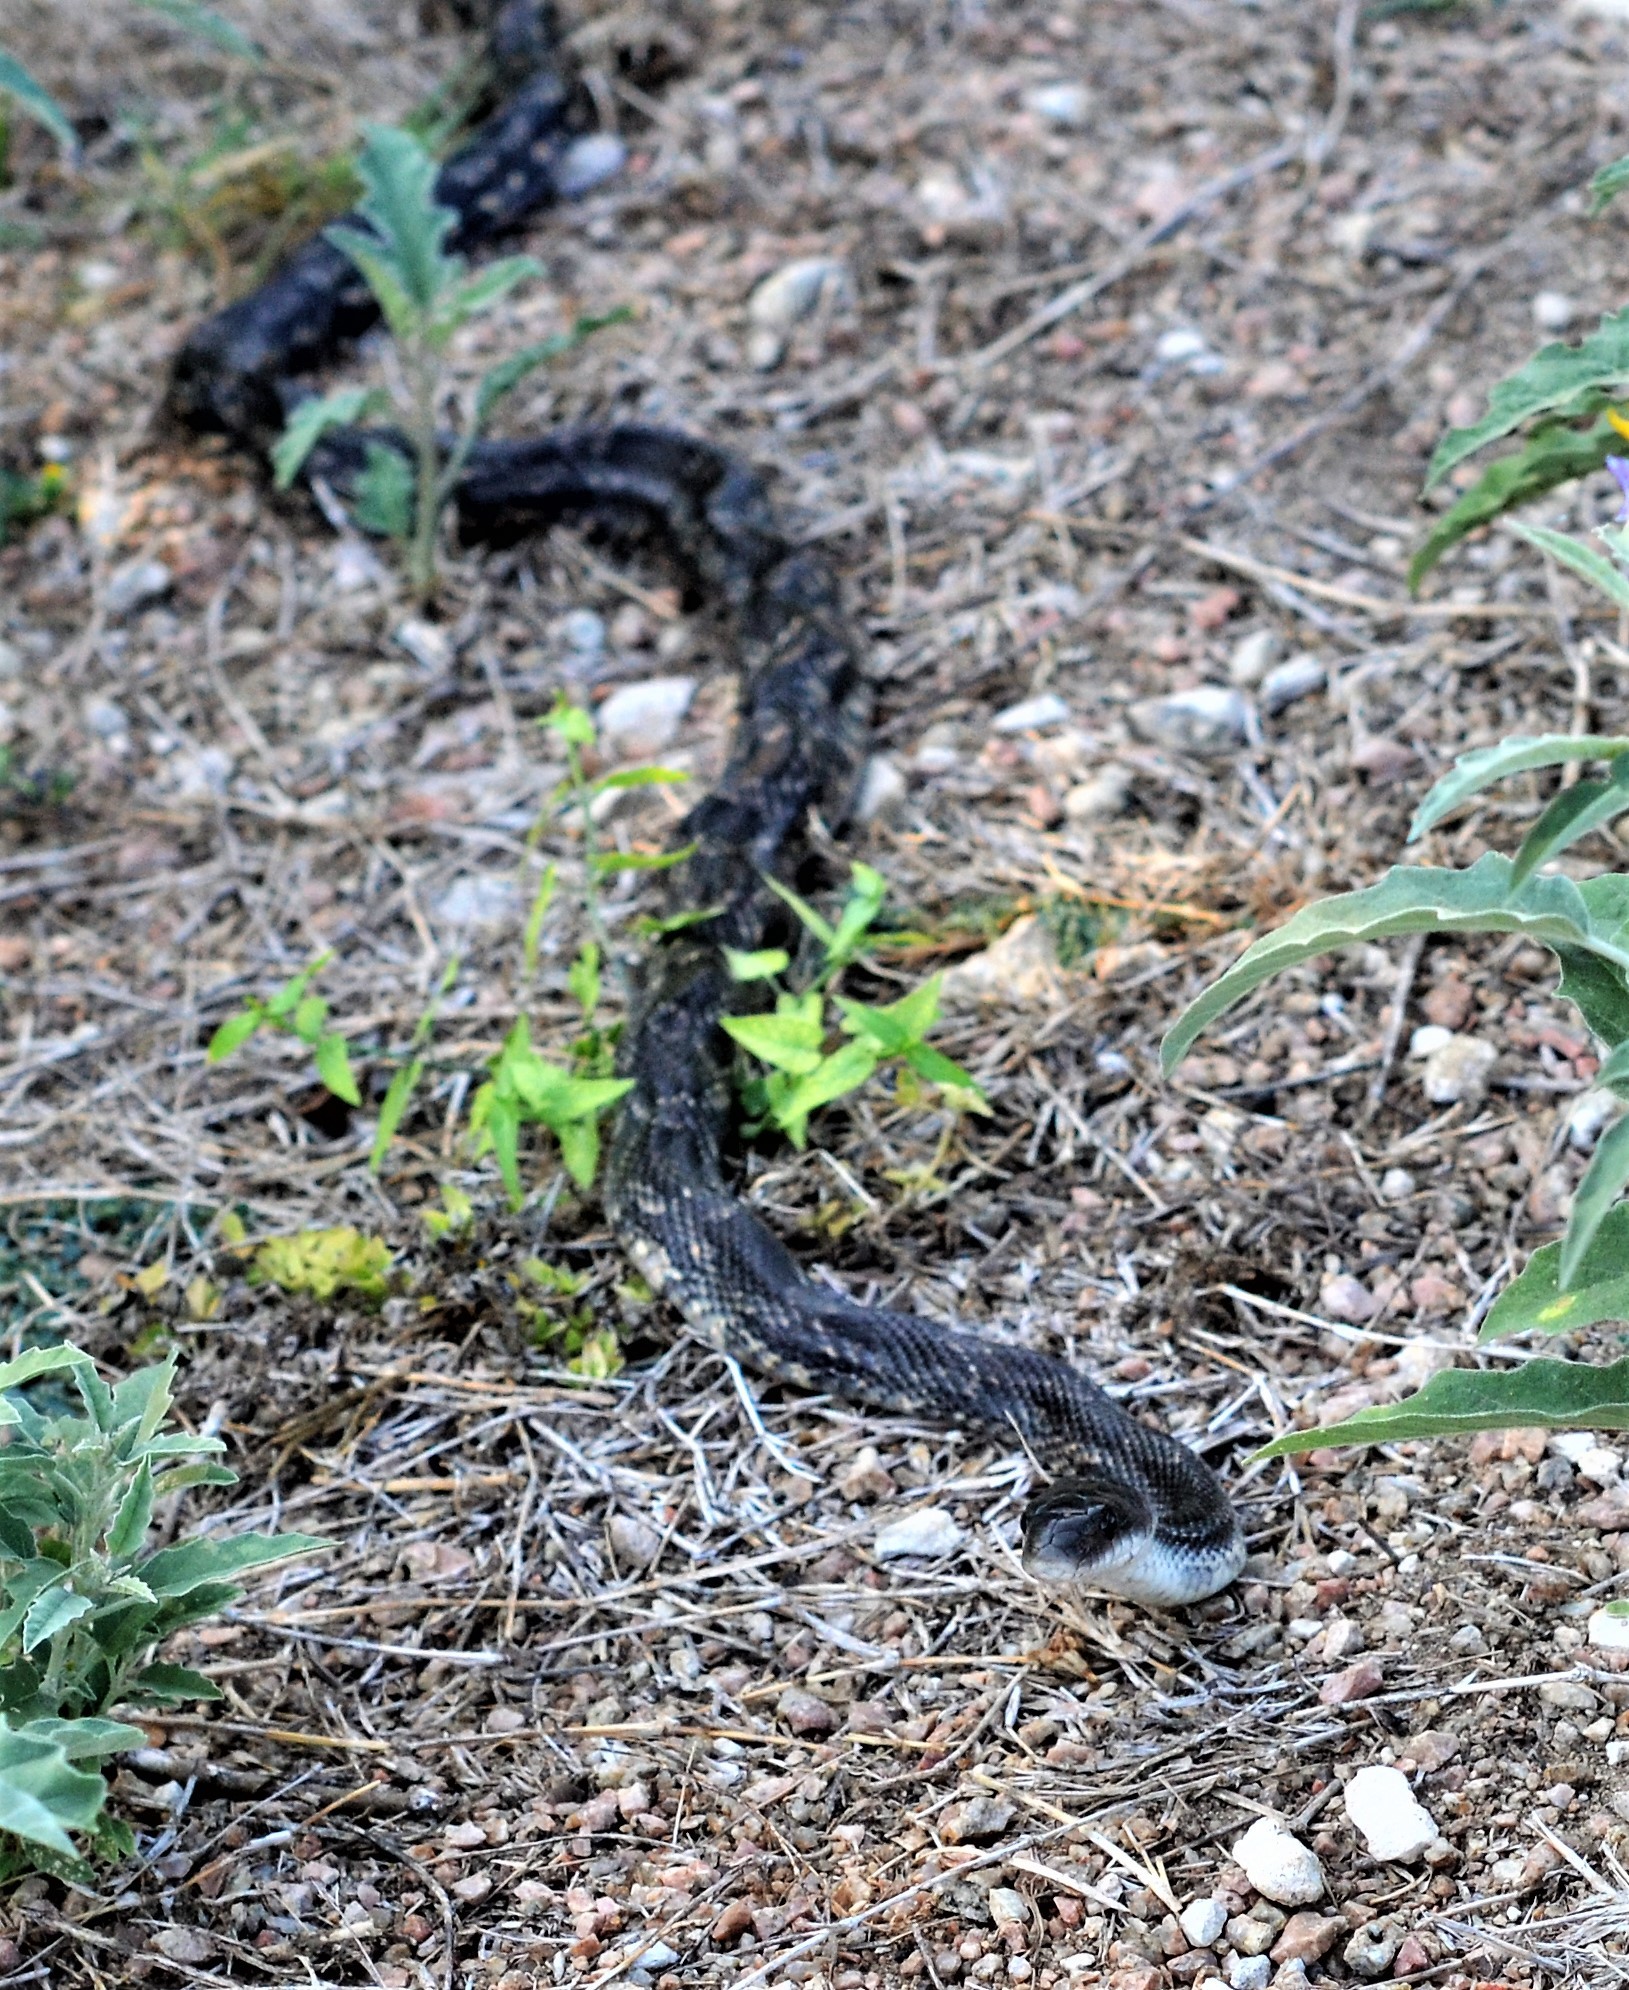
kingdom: Animalia
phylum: Chordata
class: Squamata
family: Colubridae
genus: Pantherophis
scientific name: Pantherophis obsoletus
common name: Black rat snake
